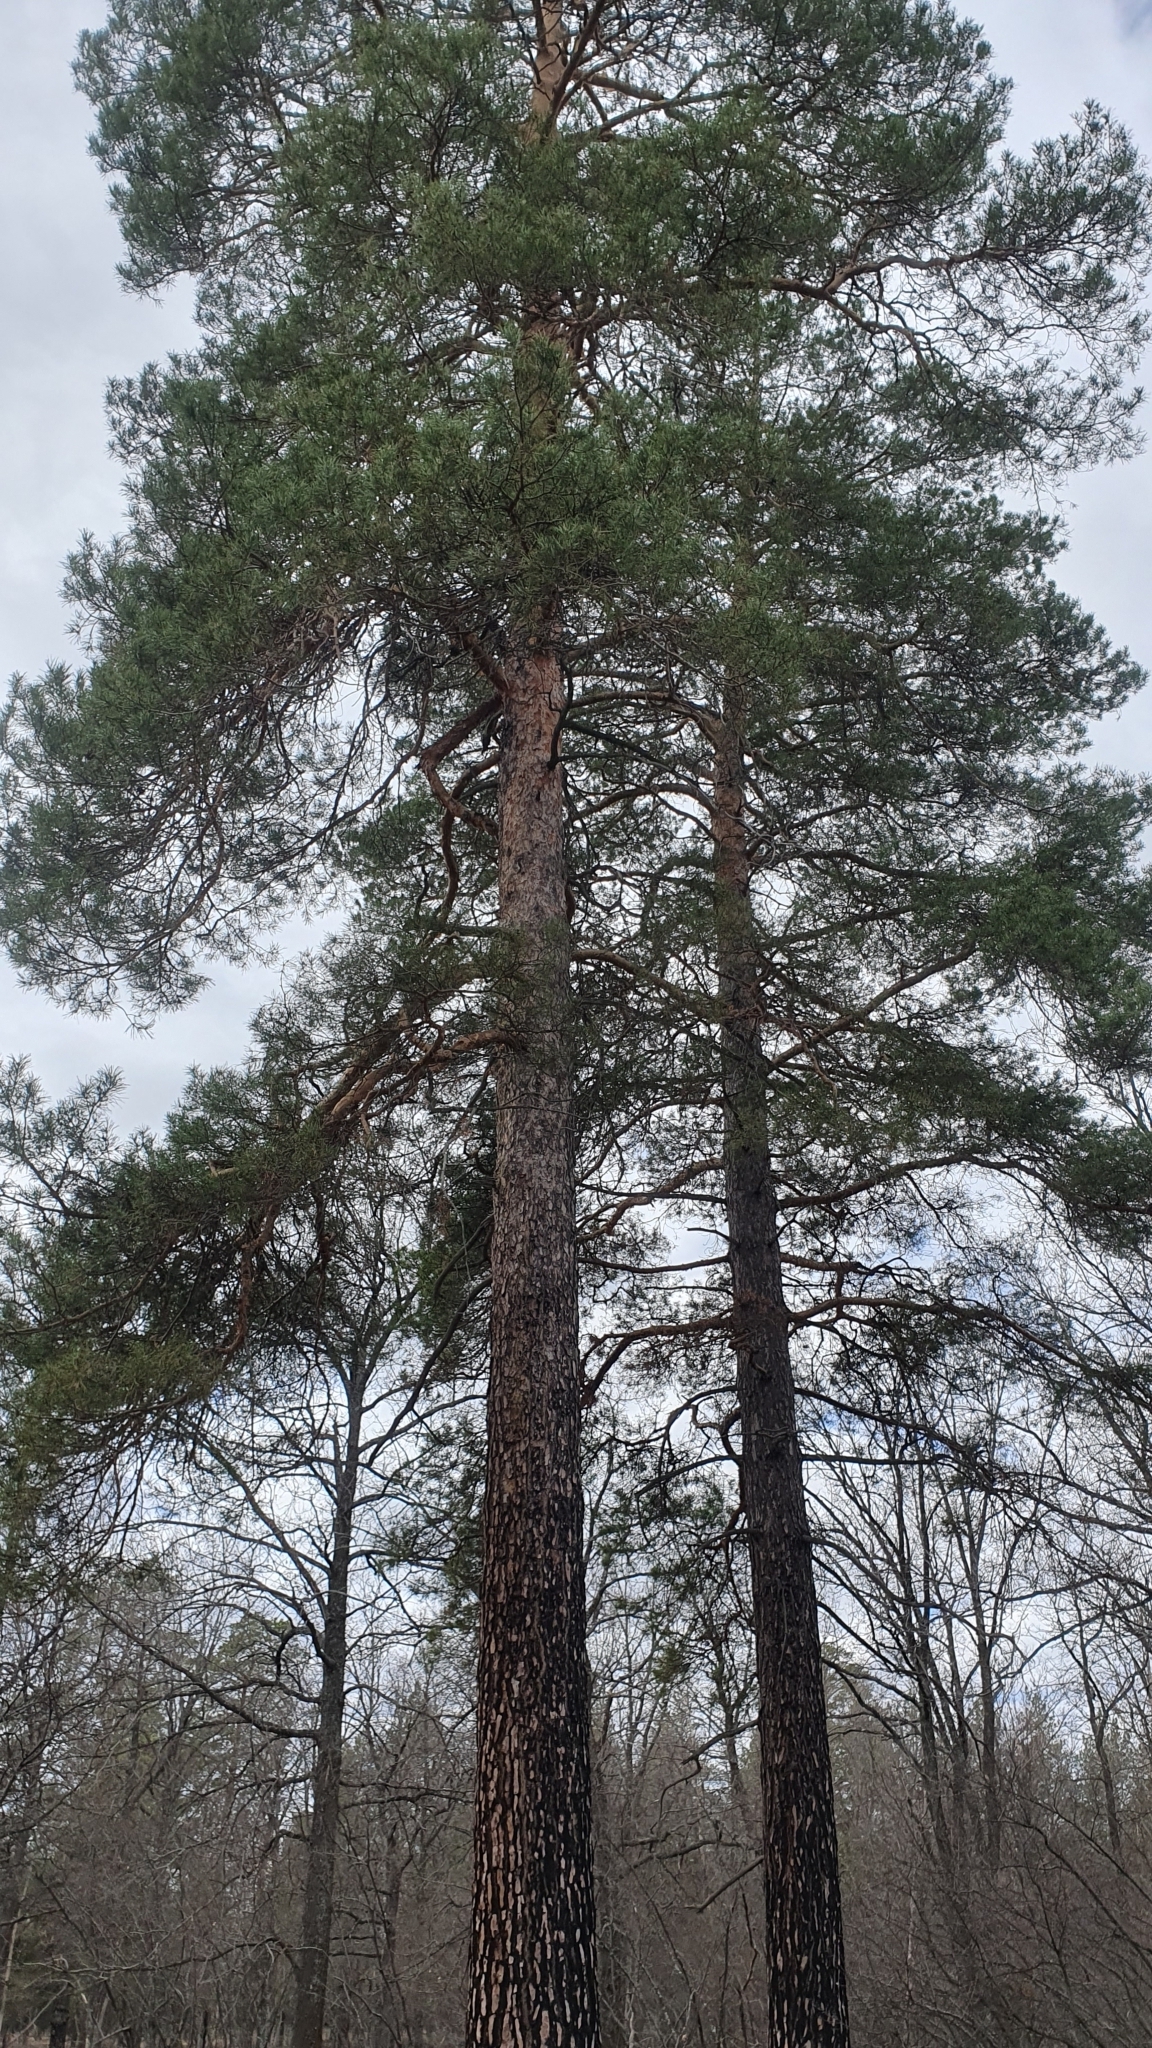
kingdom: Plantae
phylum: Tracheophyta
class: Pinopsida
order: Pinales
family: Pinaceae
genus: Pinus
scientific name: Pinus sylvestris
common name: Scots pine
